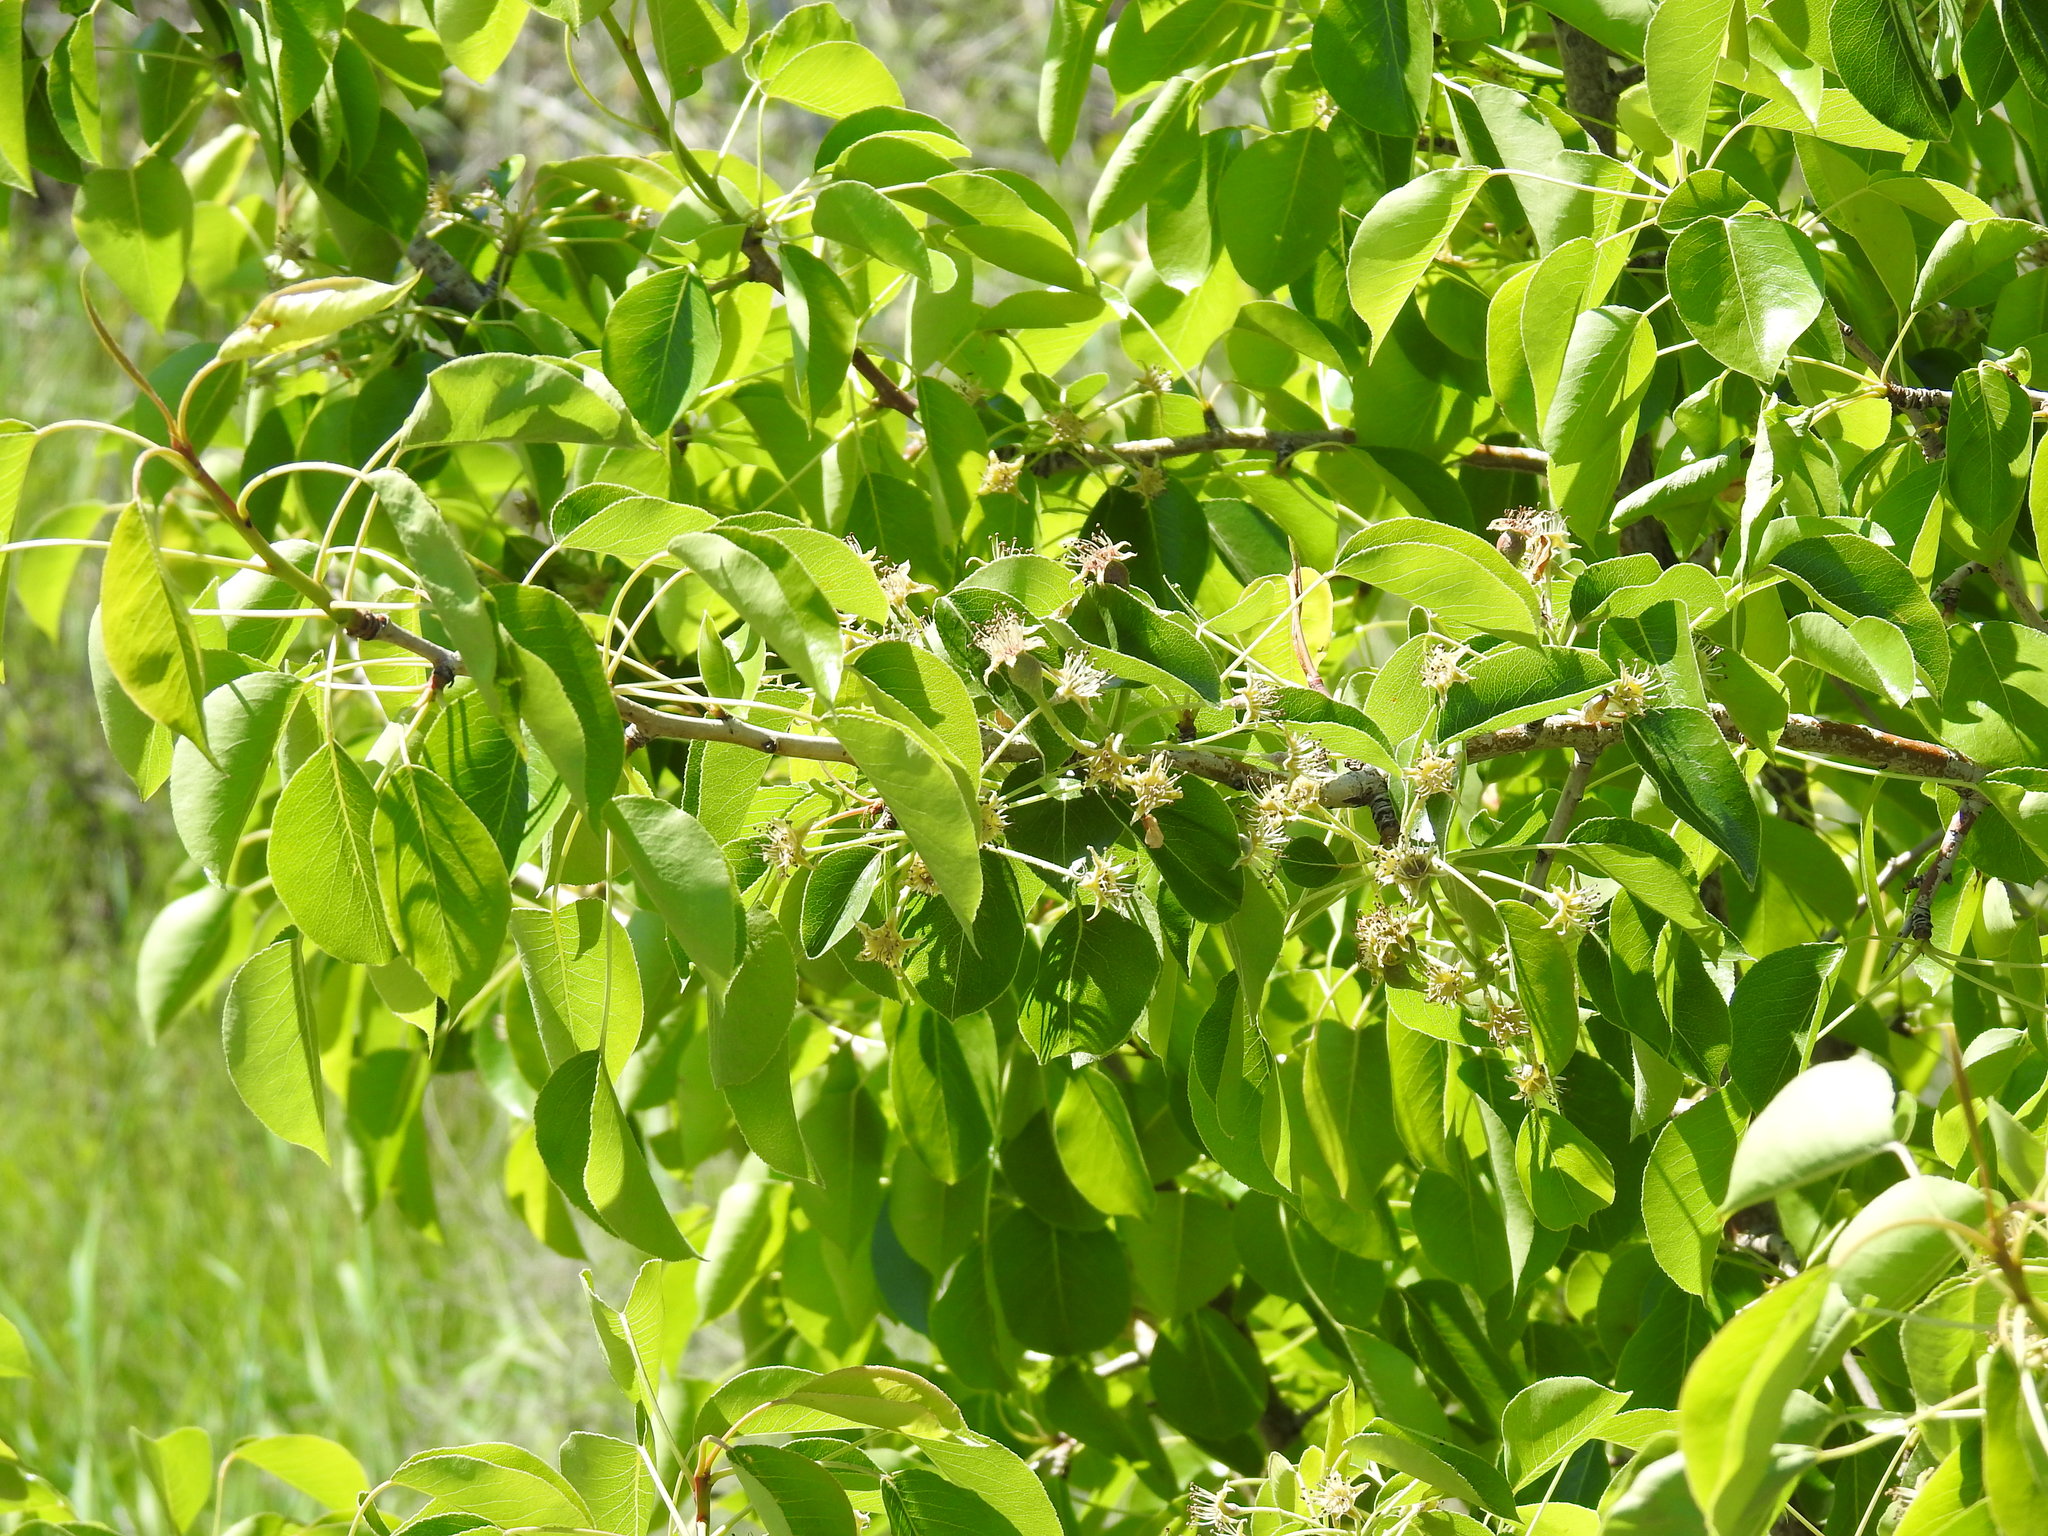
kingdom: Plantae
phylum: Tracheophyta
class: Magnoliopsida
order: Rosales
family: Rosaceae
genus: Pyrus
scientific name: Pyrus communis
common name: Pear
